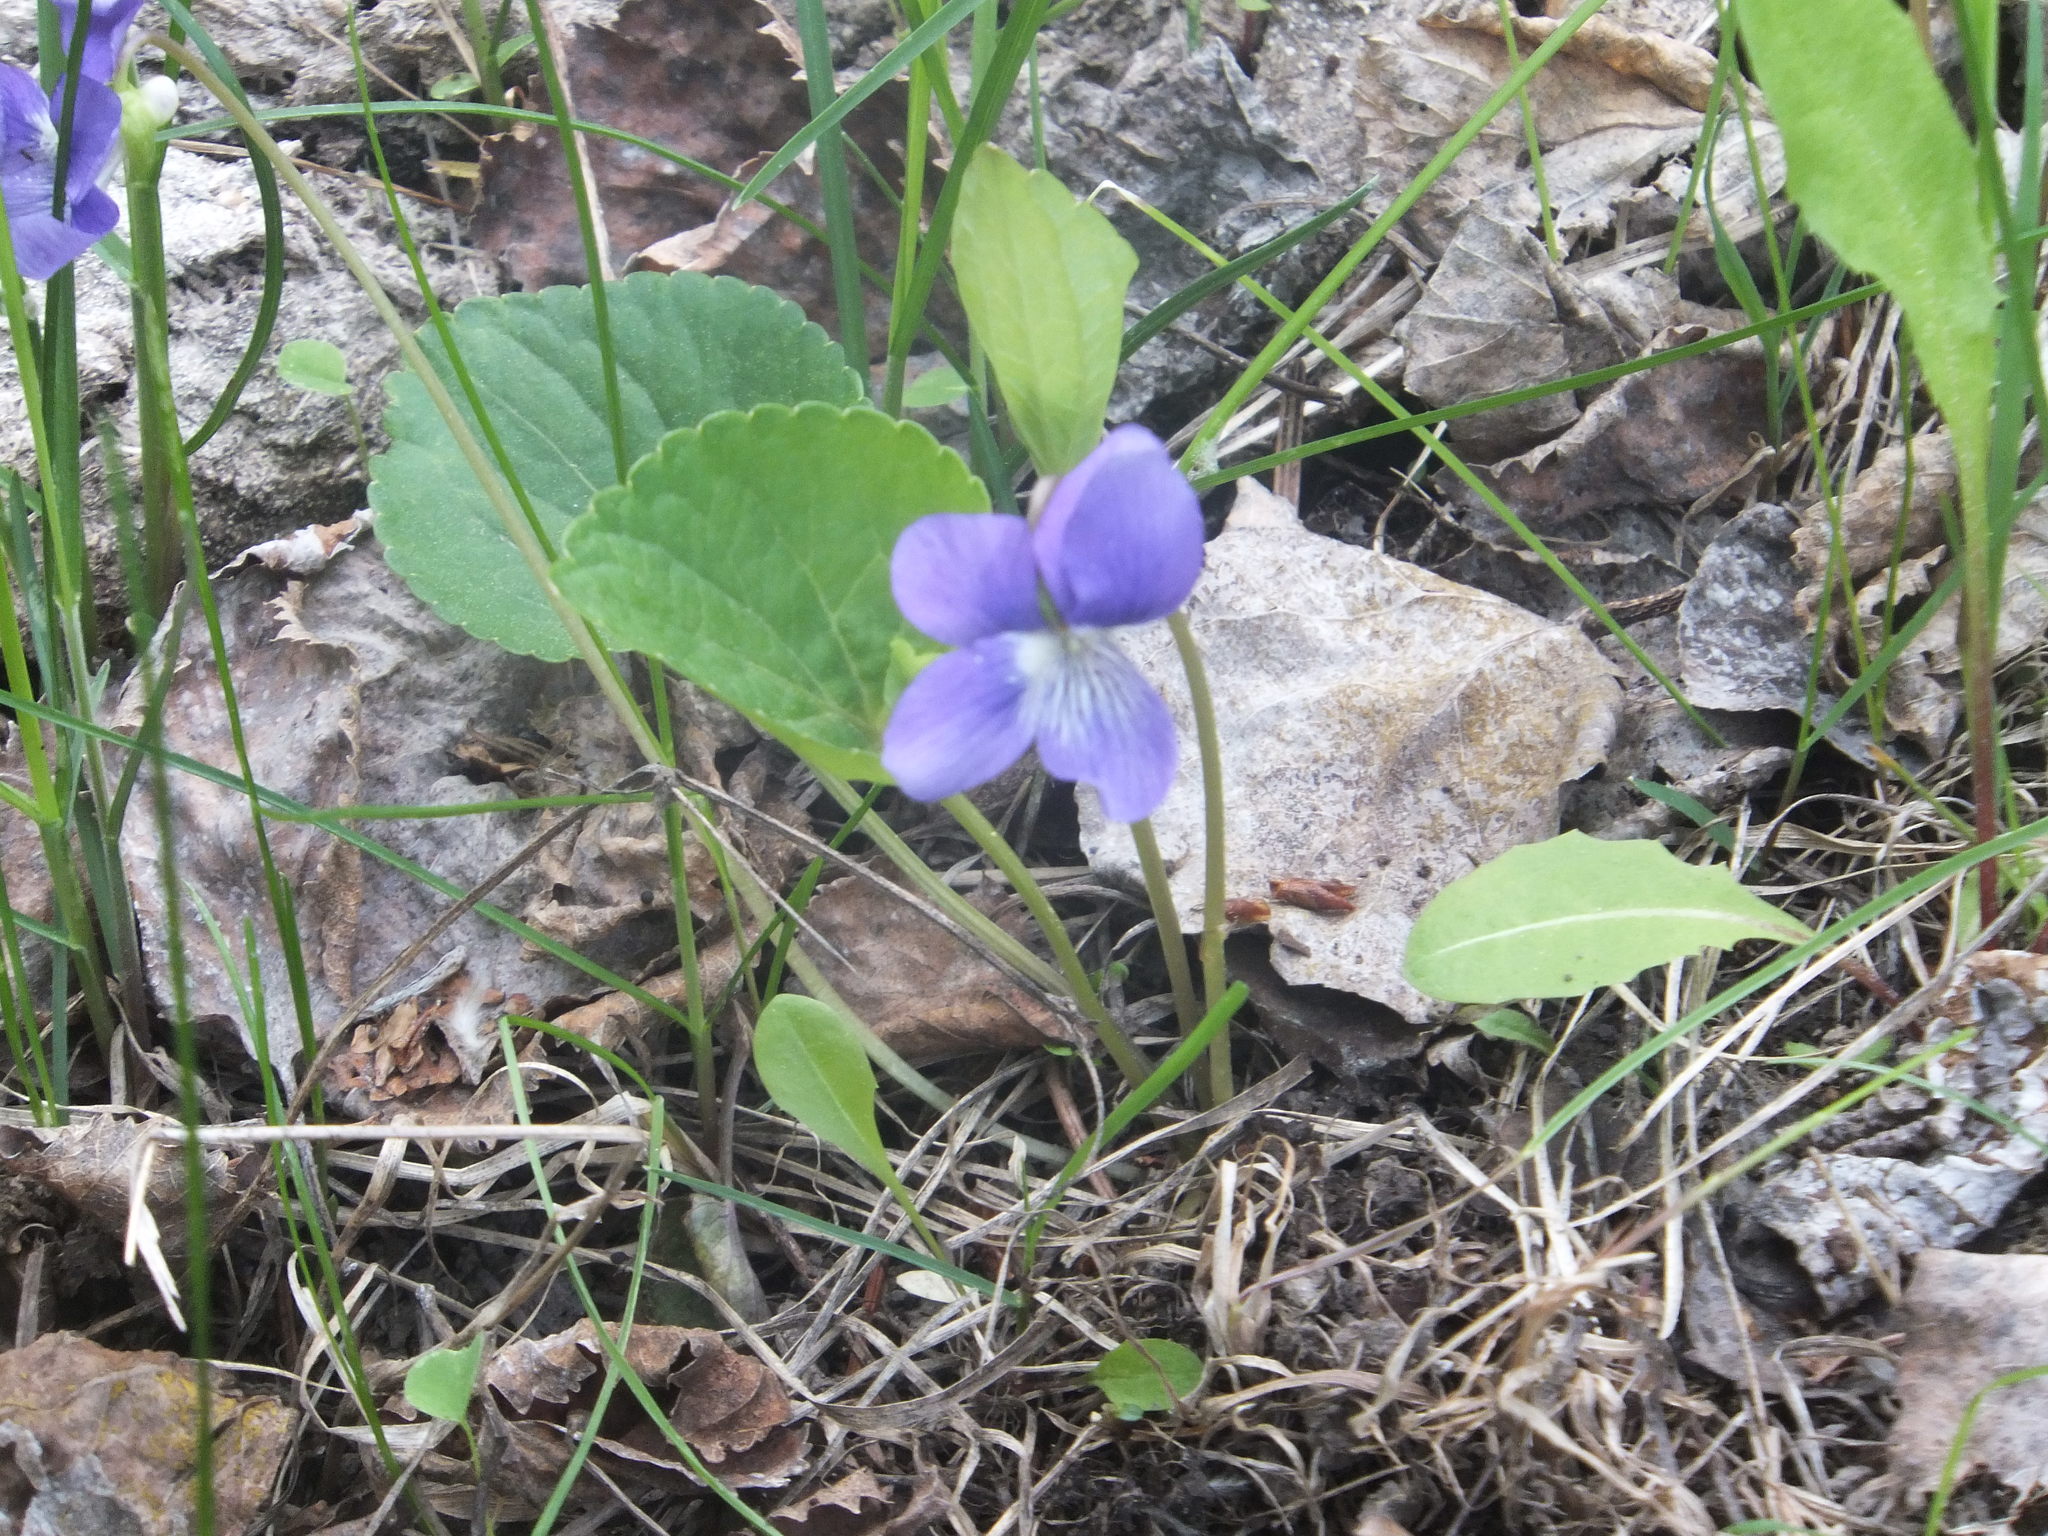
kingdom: Plantae
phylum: Tracheophyta
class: Magnoliopsida
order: Malpighiales
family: Violaceae
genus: Viola
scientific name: Viola nephrophylla
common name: Blue meadow violet
